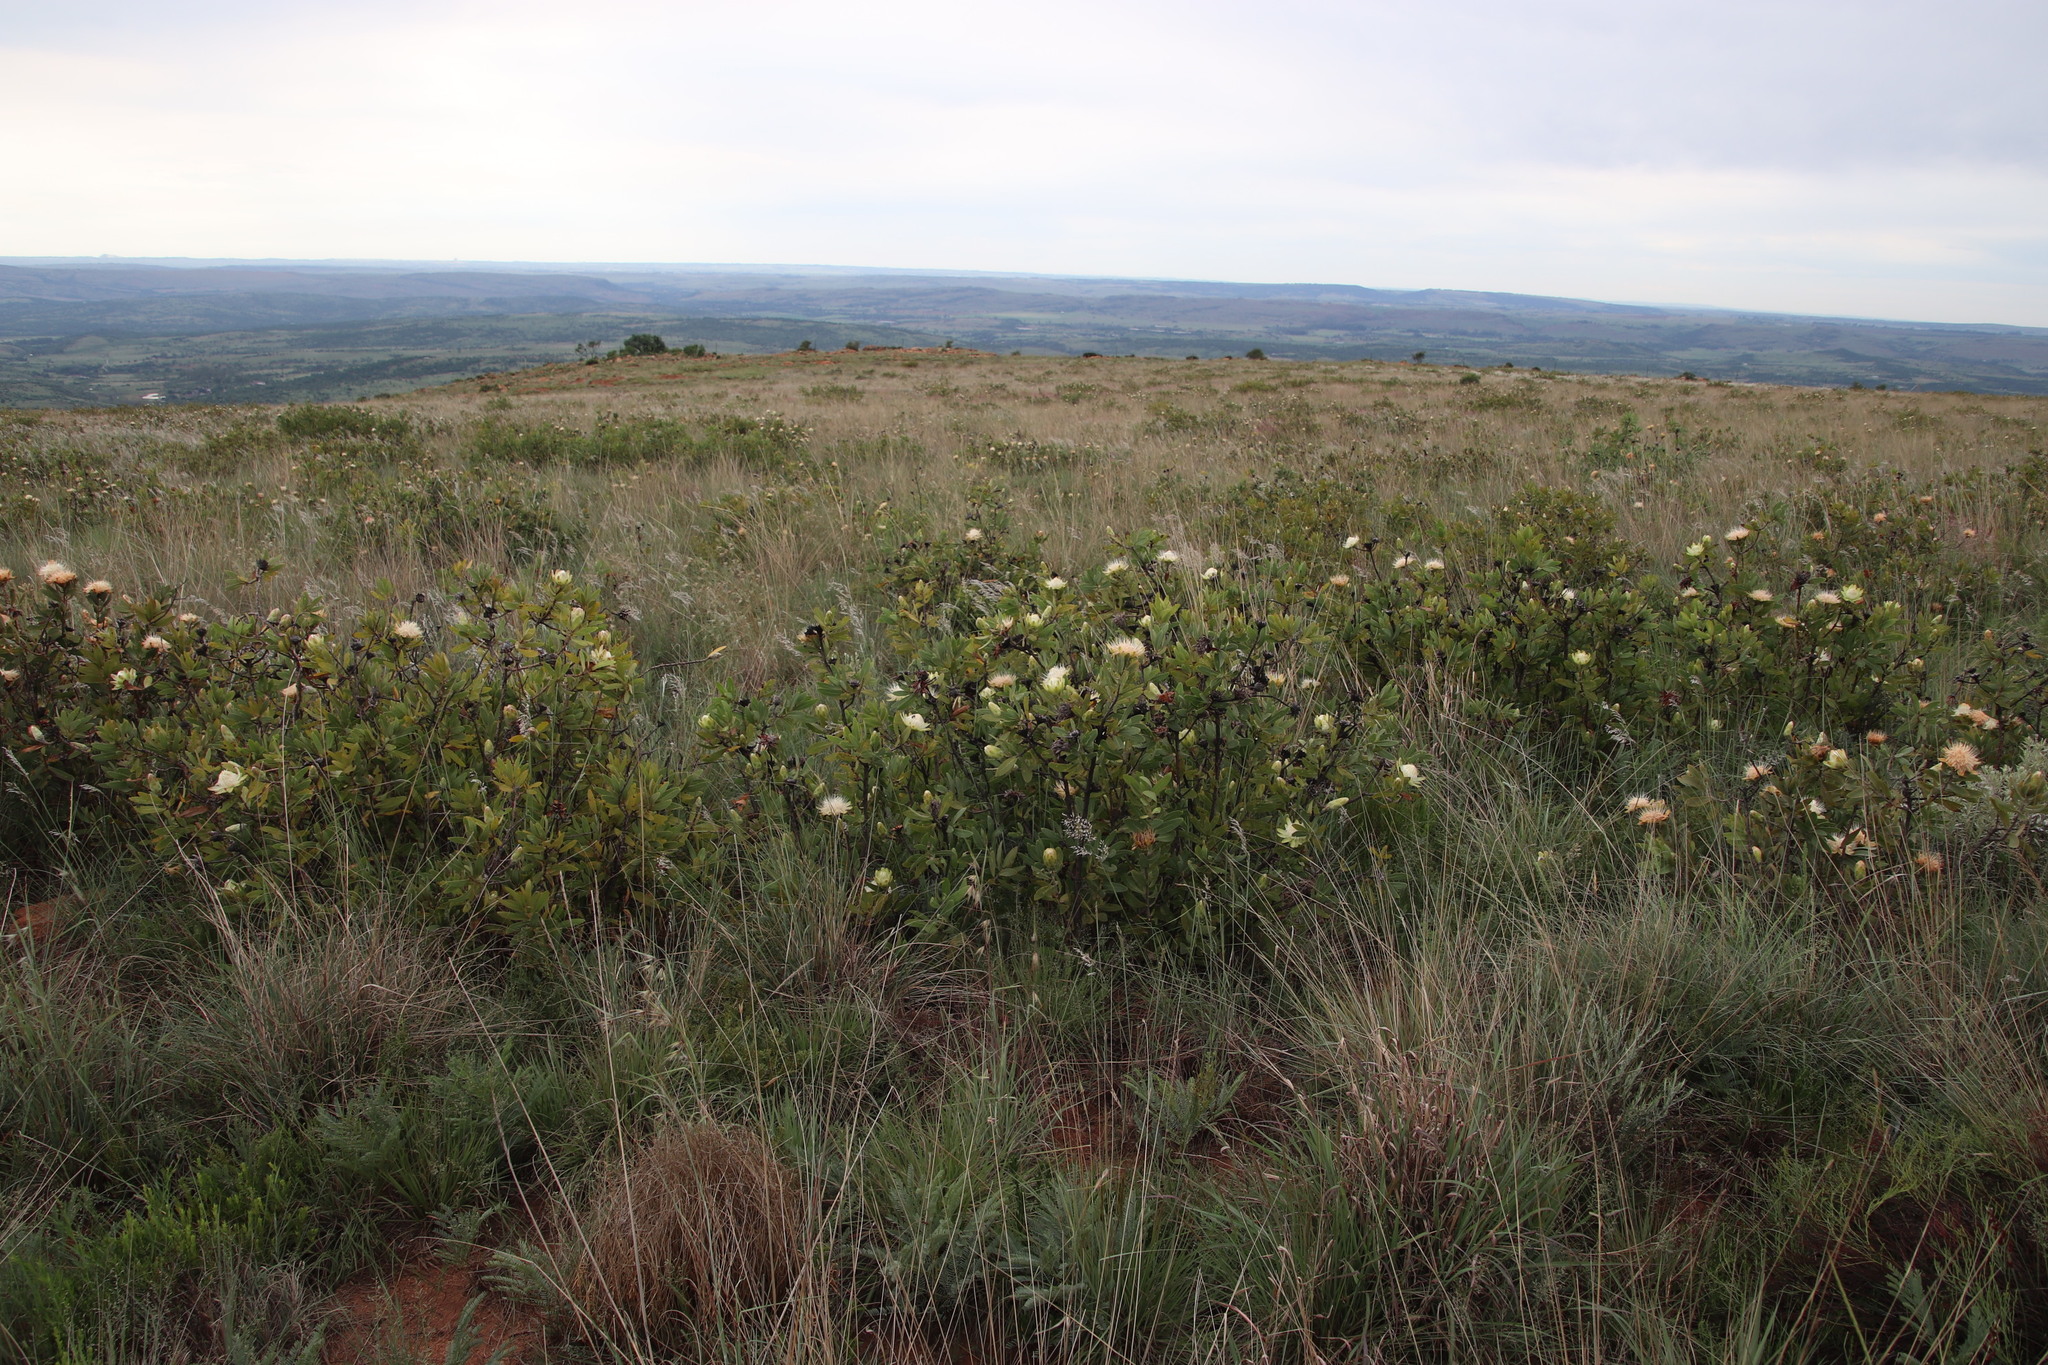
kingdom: Plantae
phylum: Tracheophyta
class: Magnoliopsida
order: Proteales
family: Proteaceae
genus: Protea
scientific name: Protea welwitschii
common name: Cluster-head protea
